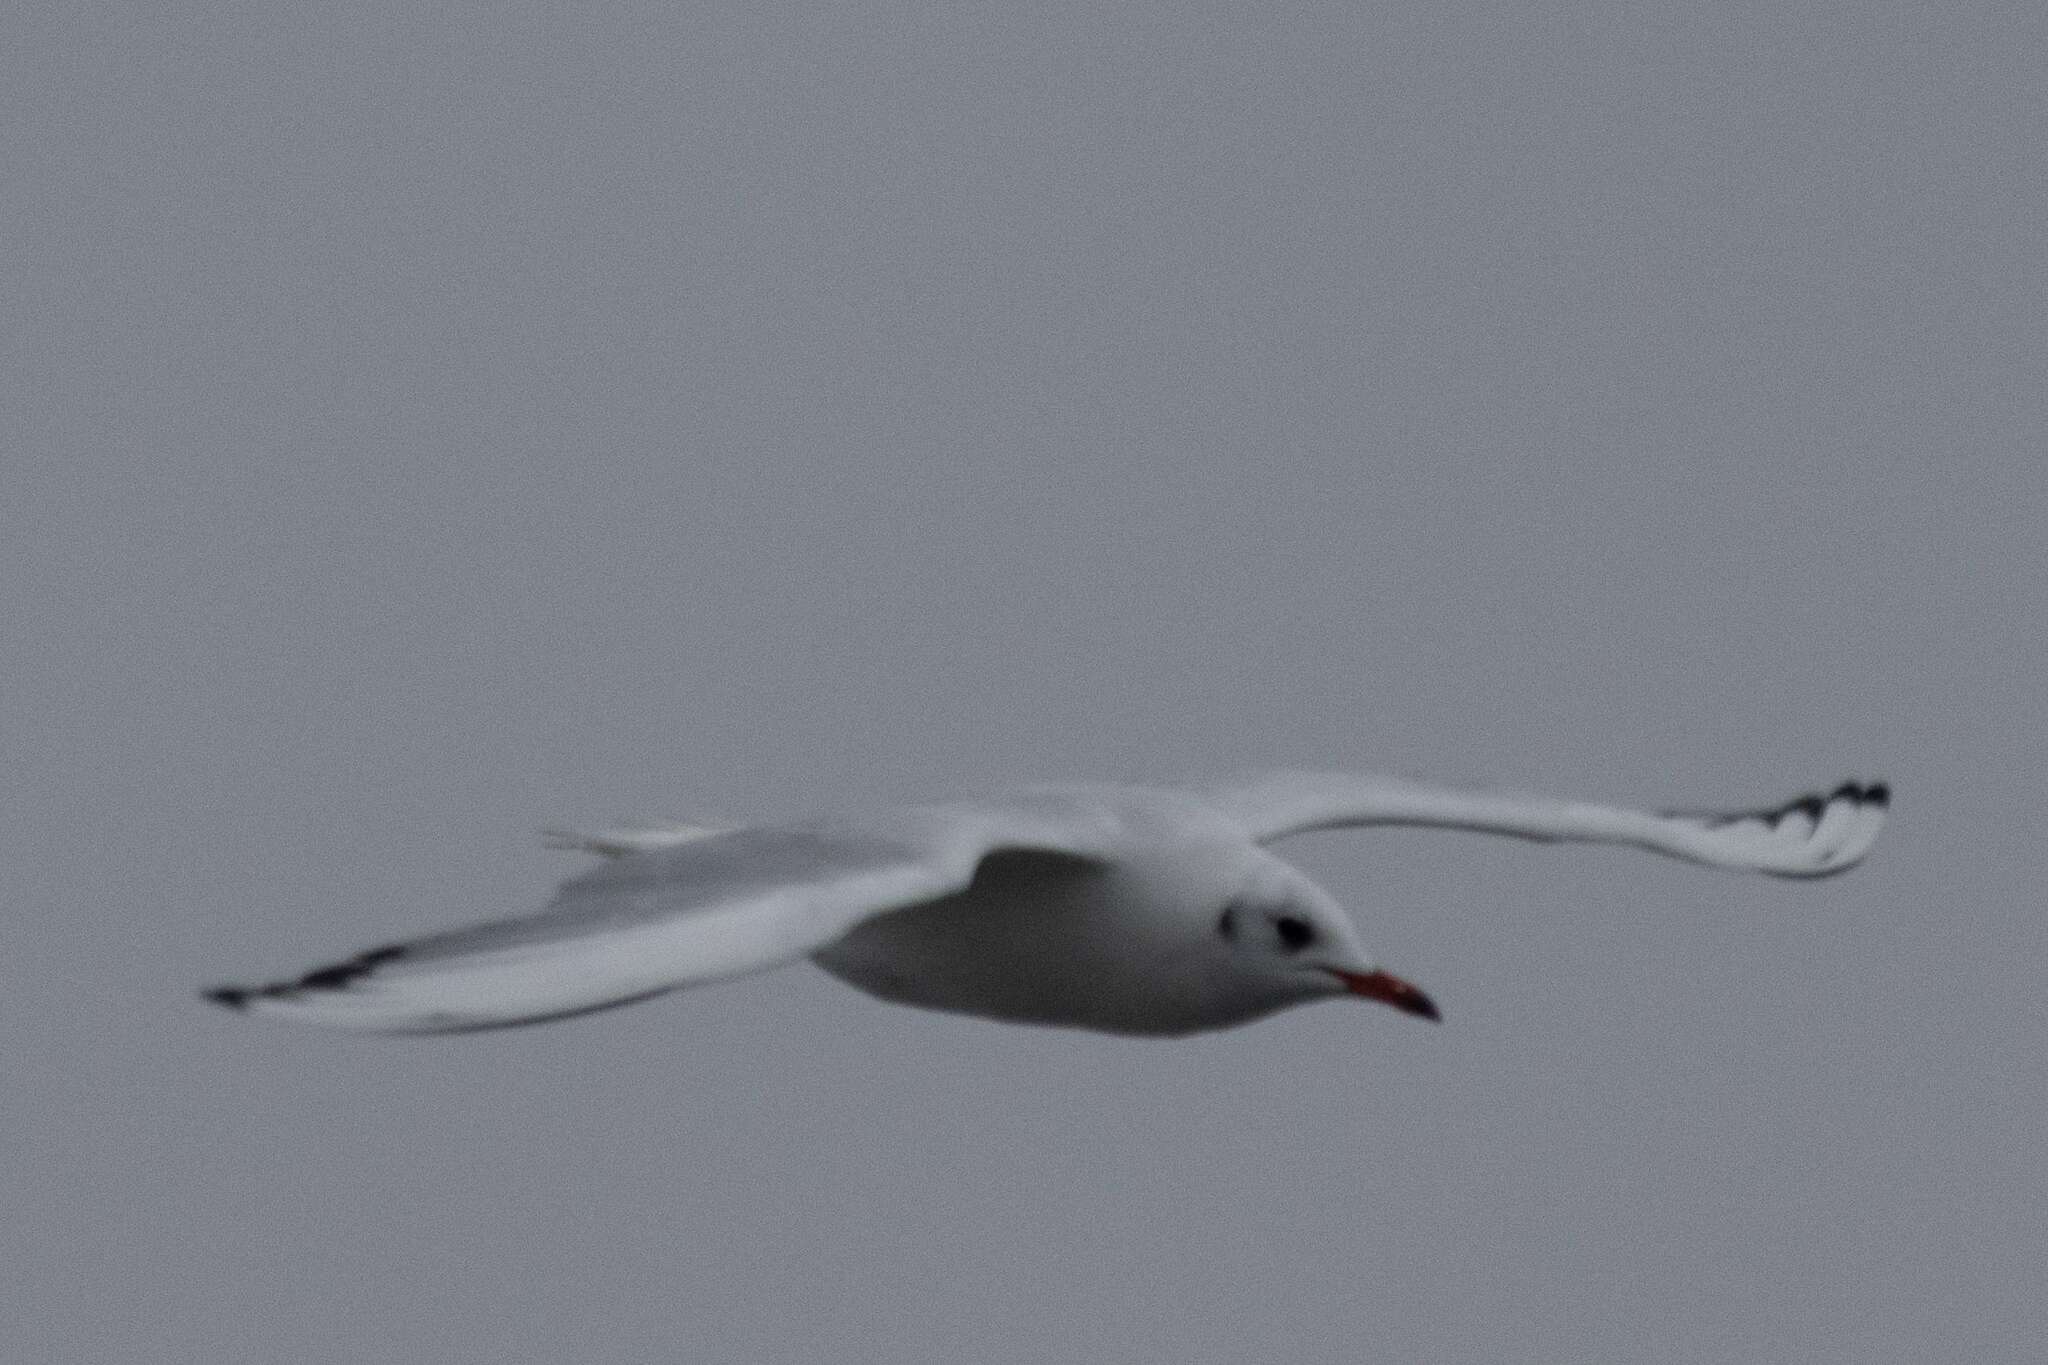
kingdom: Animalia
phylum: Chordata
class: Aves
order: Charadriiformes
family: Laridae
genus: Chroicocephalus
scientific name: Chroicocephalus ridibundus
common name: Black-headed gull
